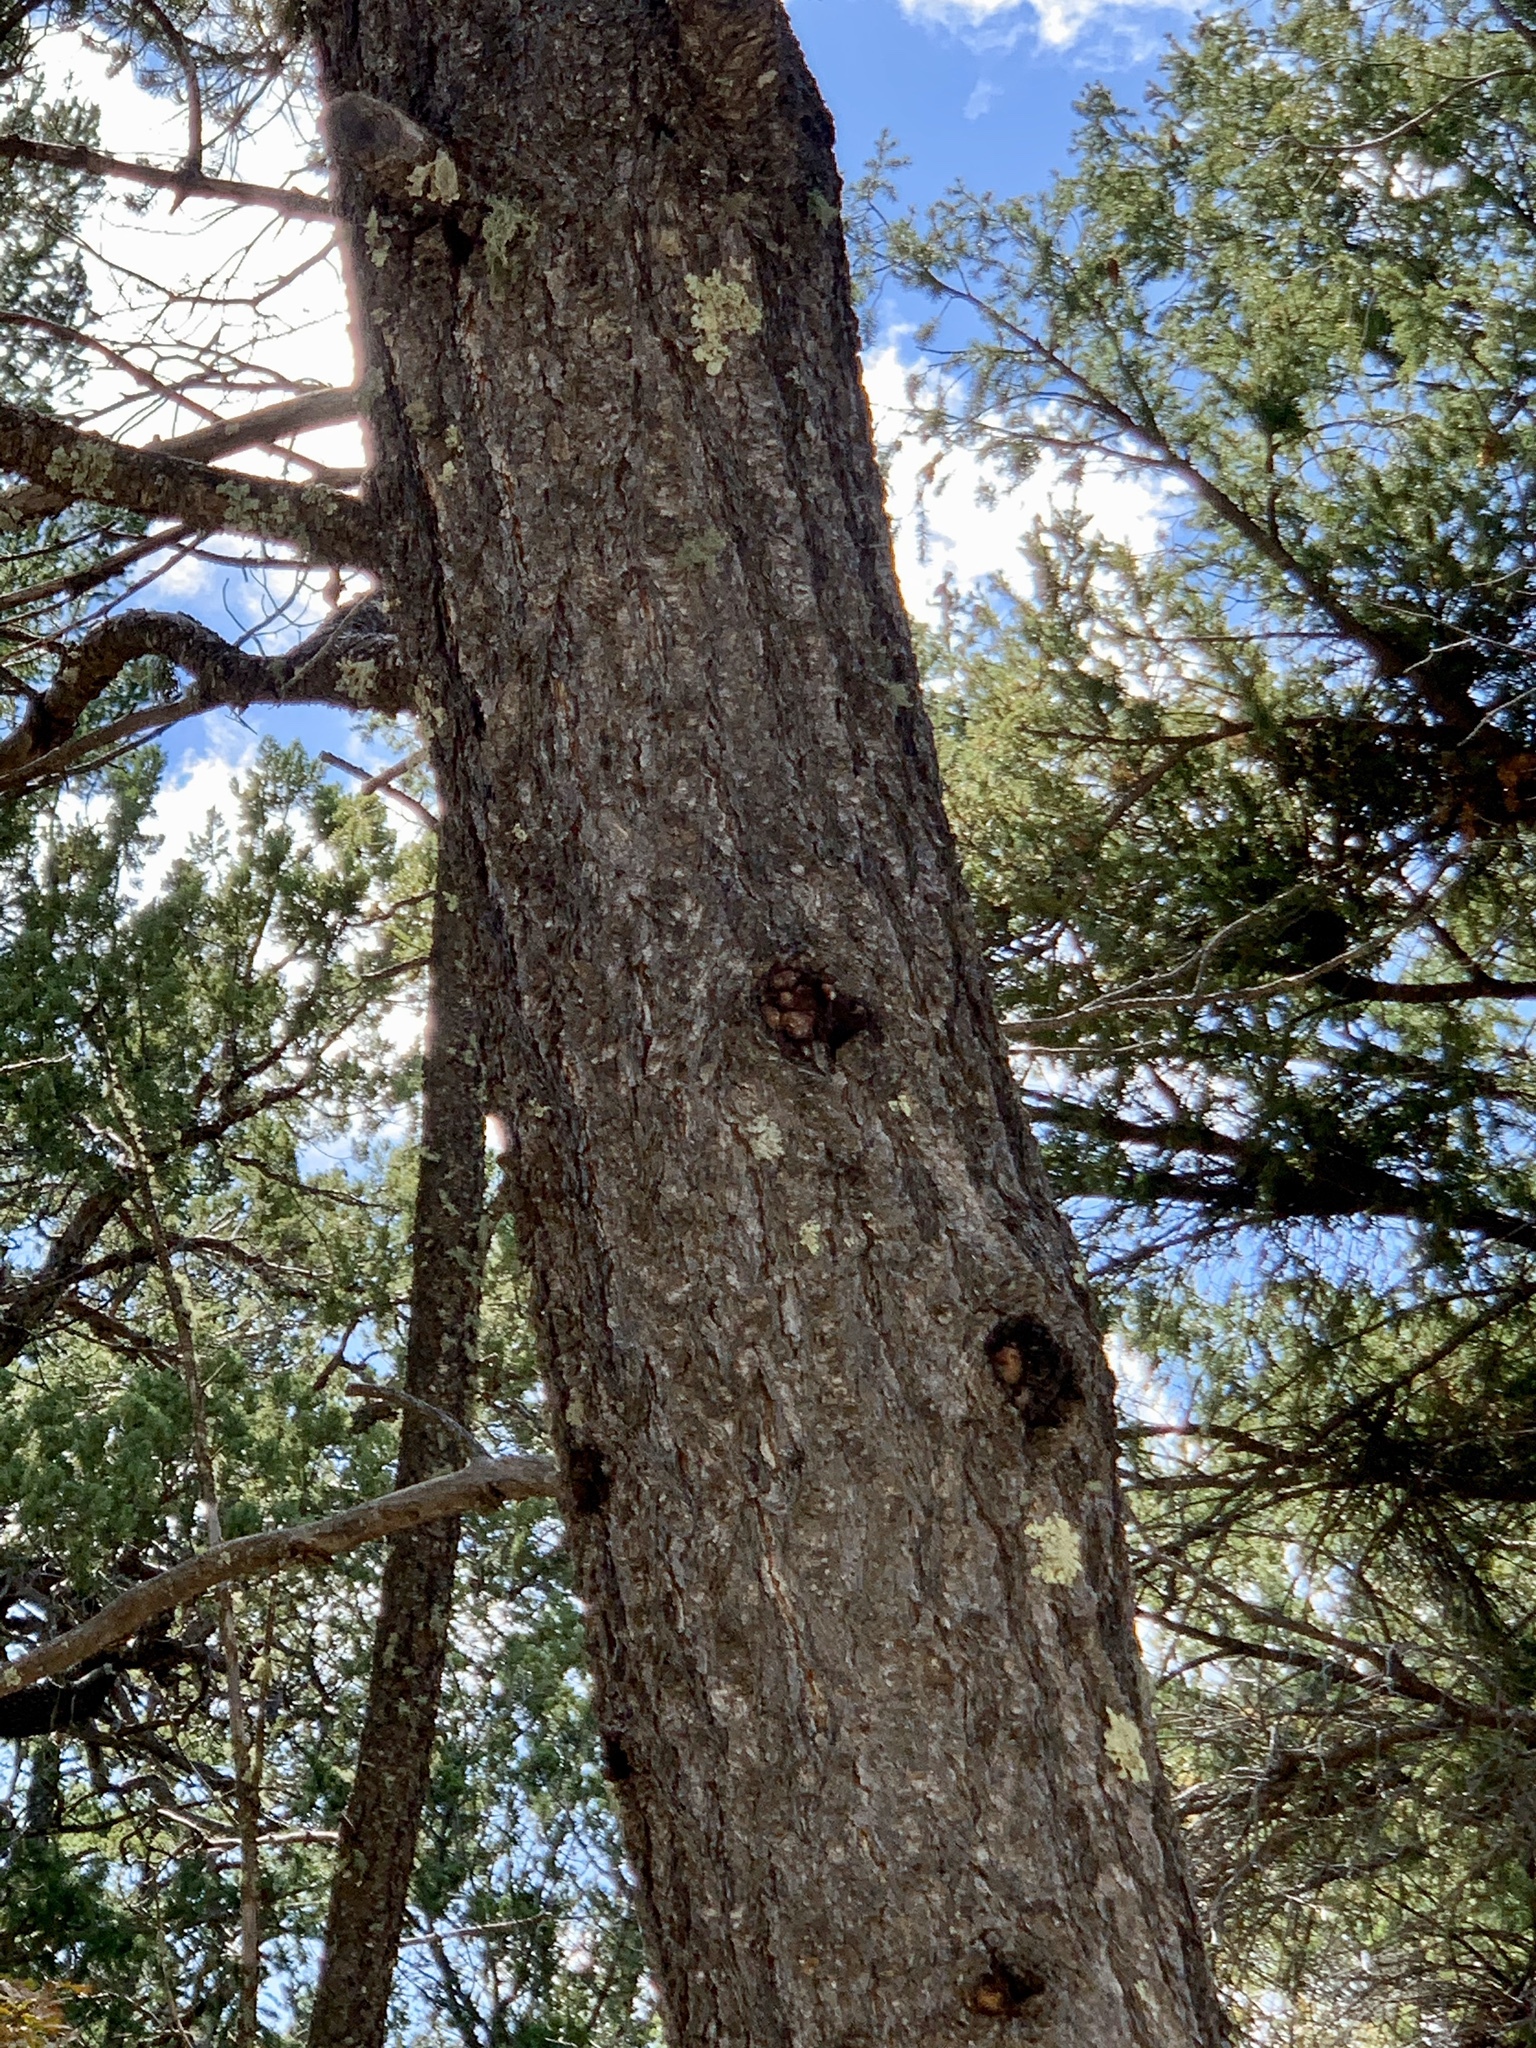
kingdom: Plantae
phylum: Tracheophyta
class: Pinopsida
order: Pinales
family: Pinaceae
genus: Pseudotsuga
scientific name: Pseudotsuga menziesii
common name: Douglas fir
